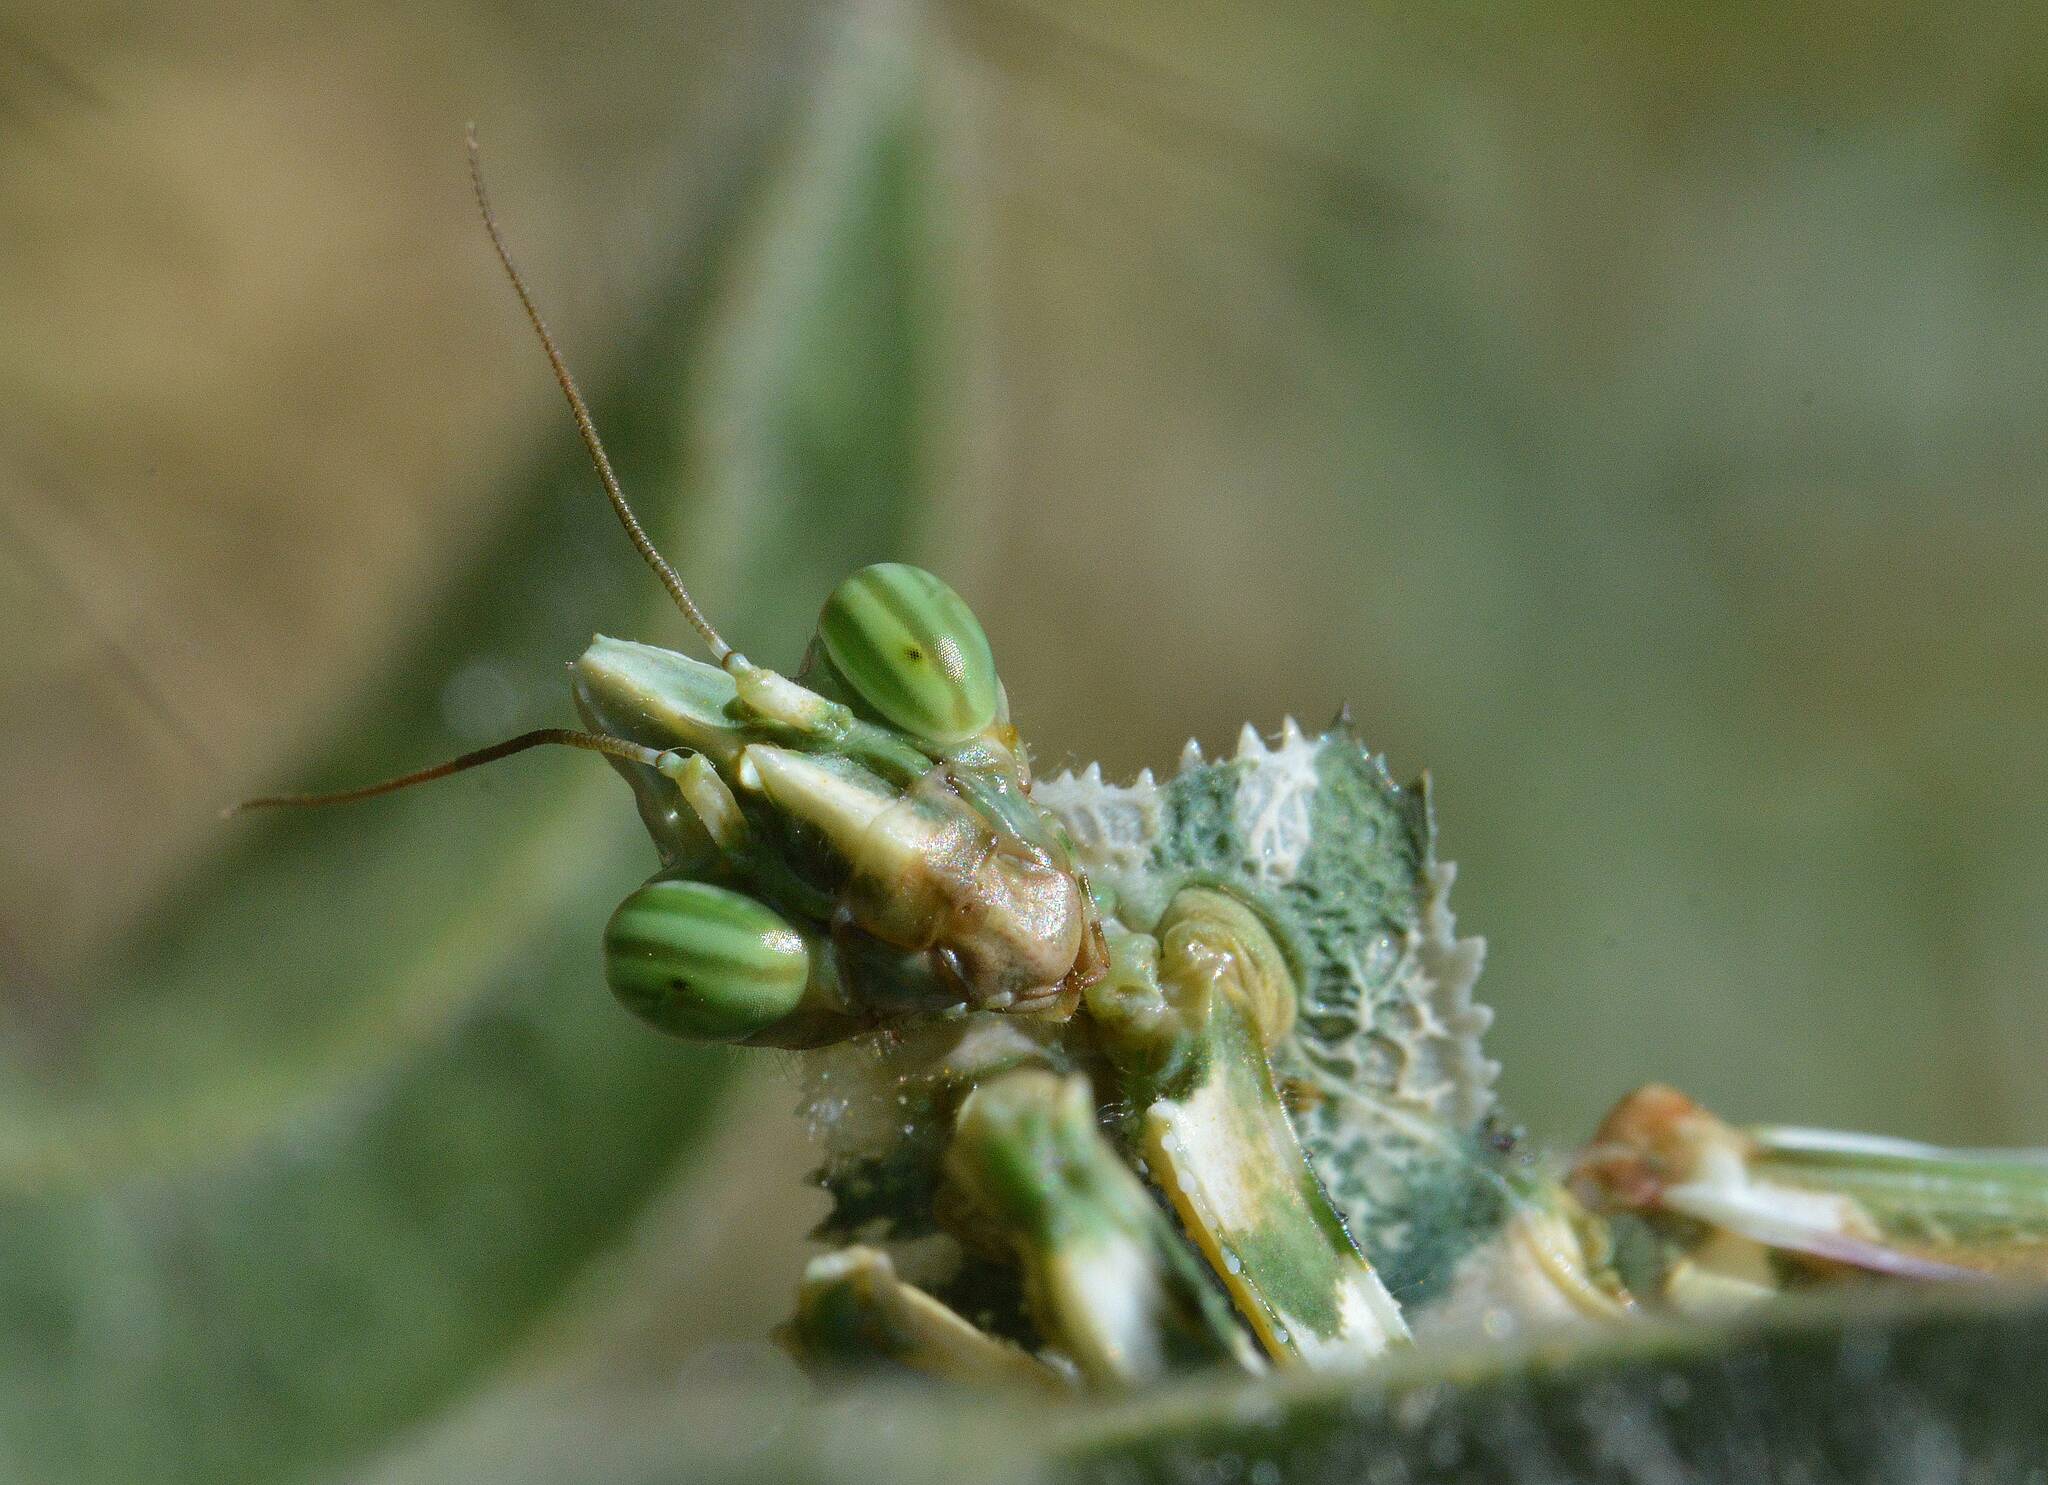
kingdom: Animalia
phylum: Arthropoda
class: Insecta
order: Mantodea
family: Empusidae
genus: Blepharopsis
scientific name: Blepharopsis mendica
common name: Devil's flower mantis
